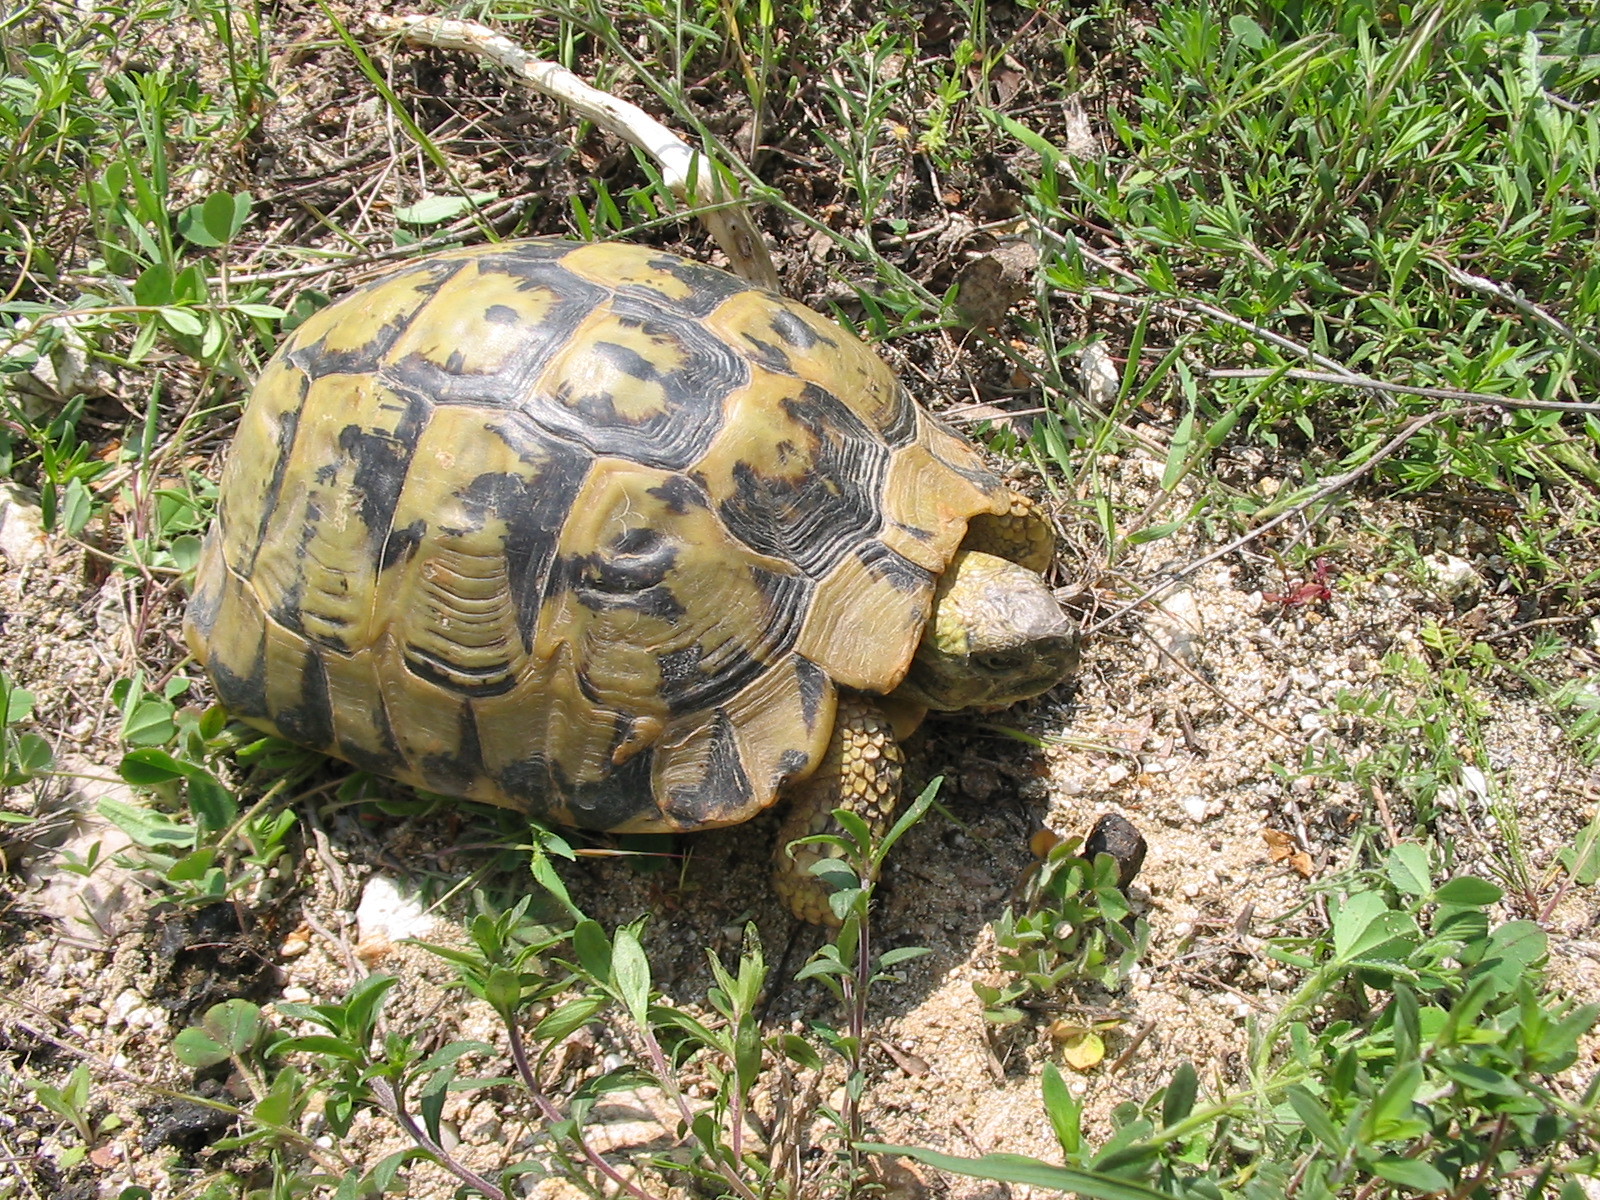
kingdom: Animalia
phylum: Chordata
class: Testudines
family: Testudinidae
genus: Testudo
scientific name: Testudo hermanni
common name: Hermann's tortoise
